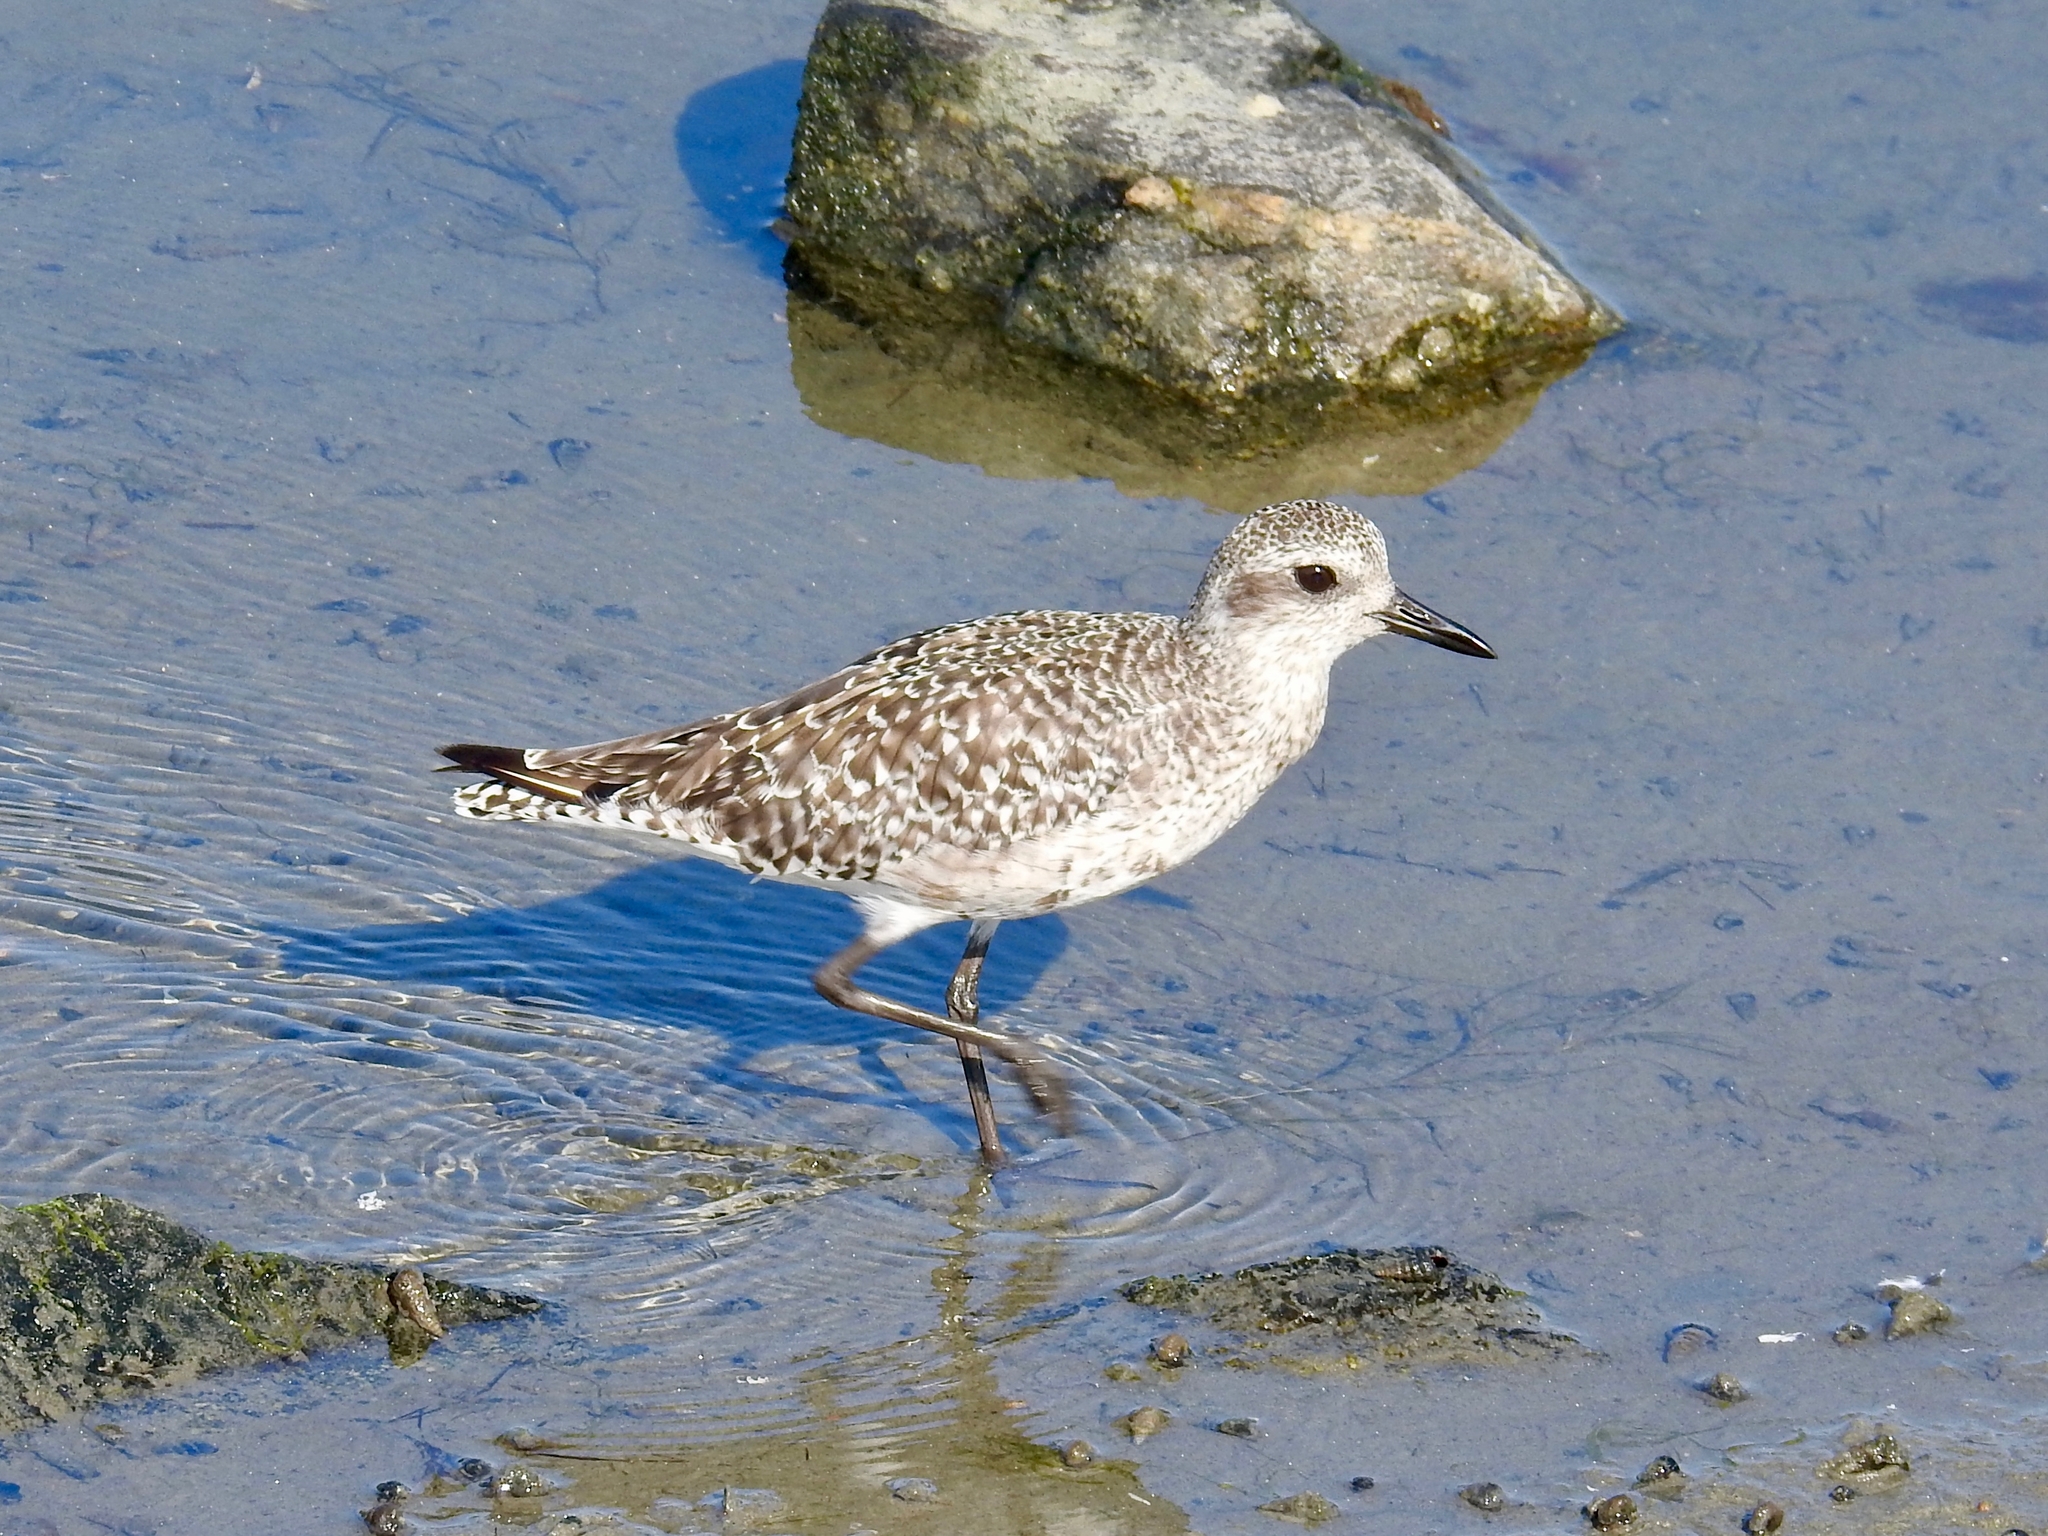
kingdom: Animalia
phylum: Chordata
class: Aves
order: Charadriiformes
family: Charadriidae
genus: Pluvialis
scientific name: Pluvialis squatarola
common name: Grey plover
